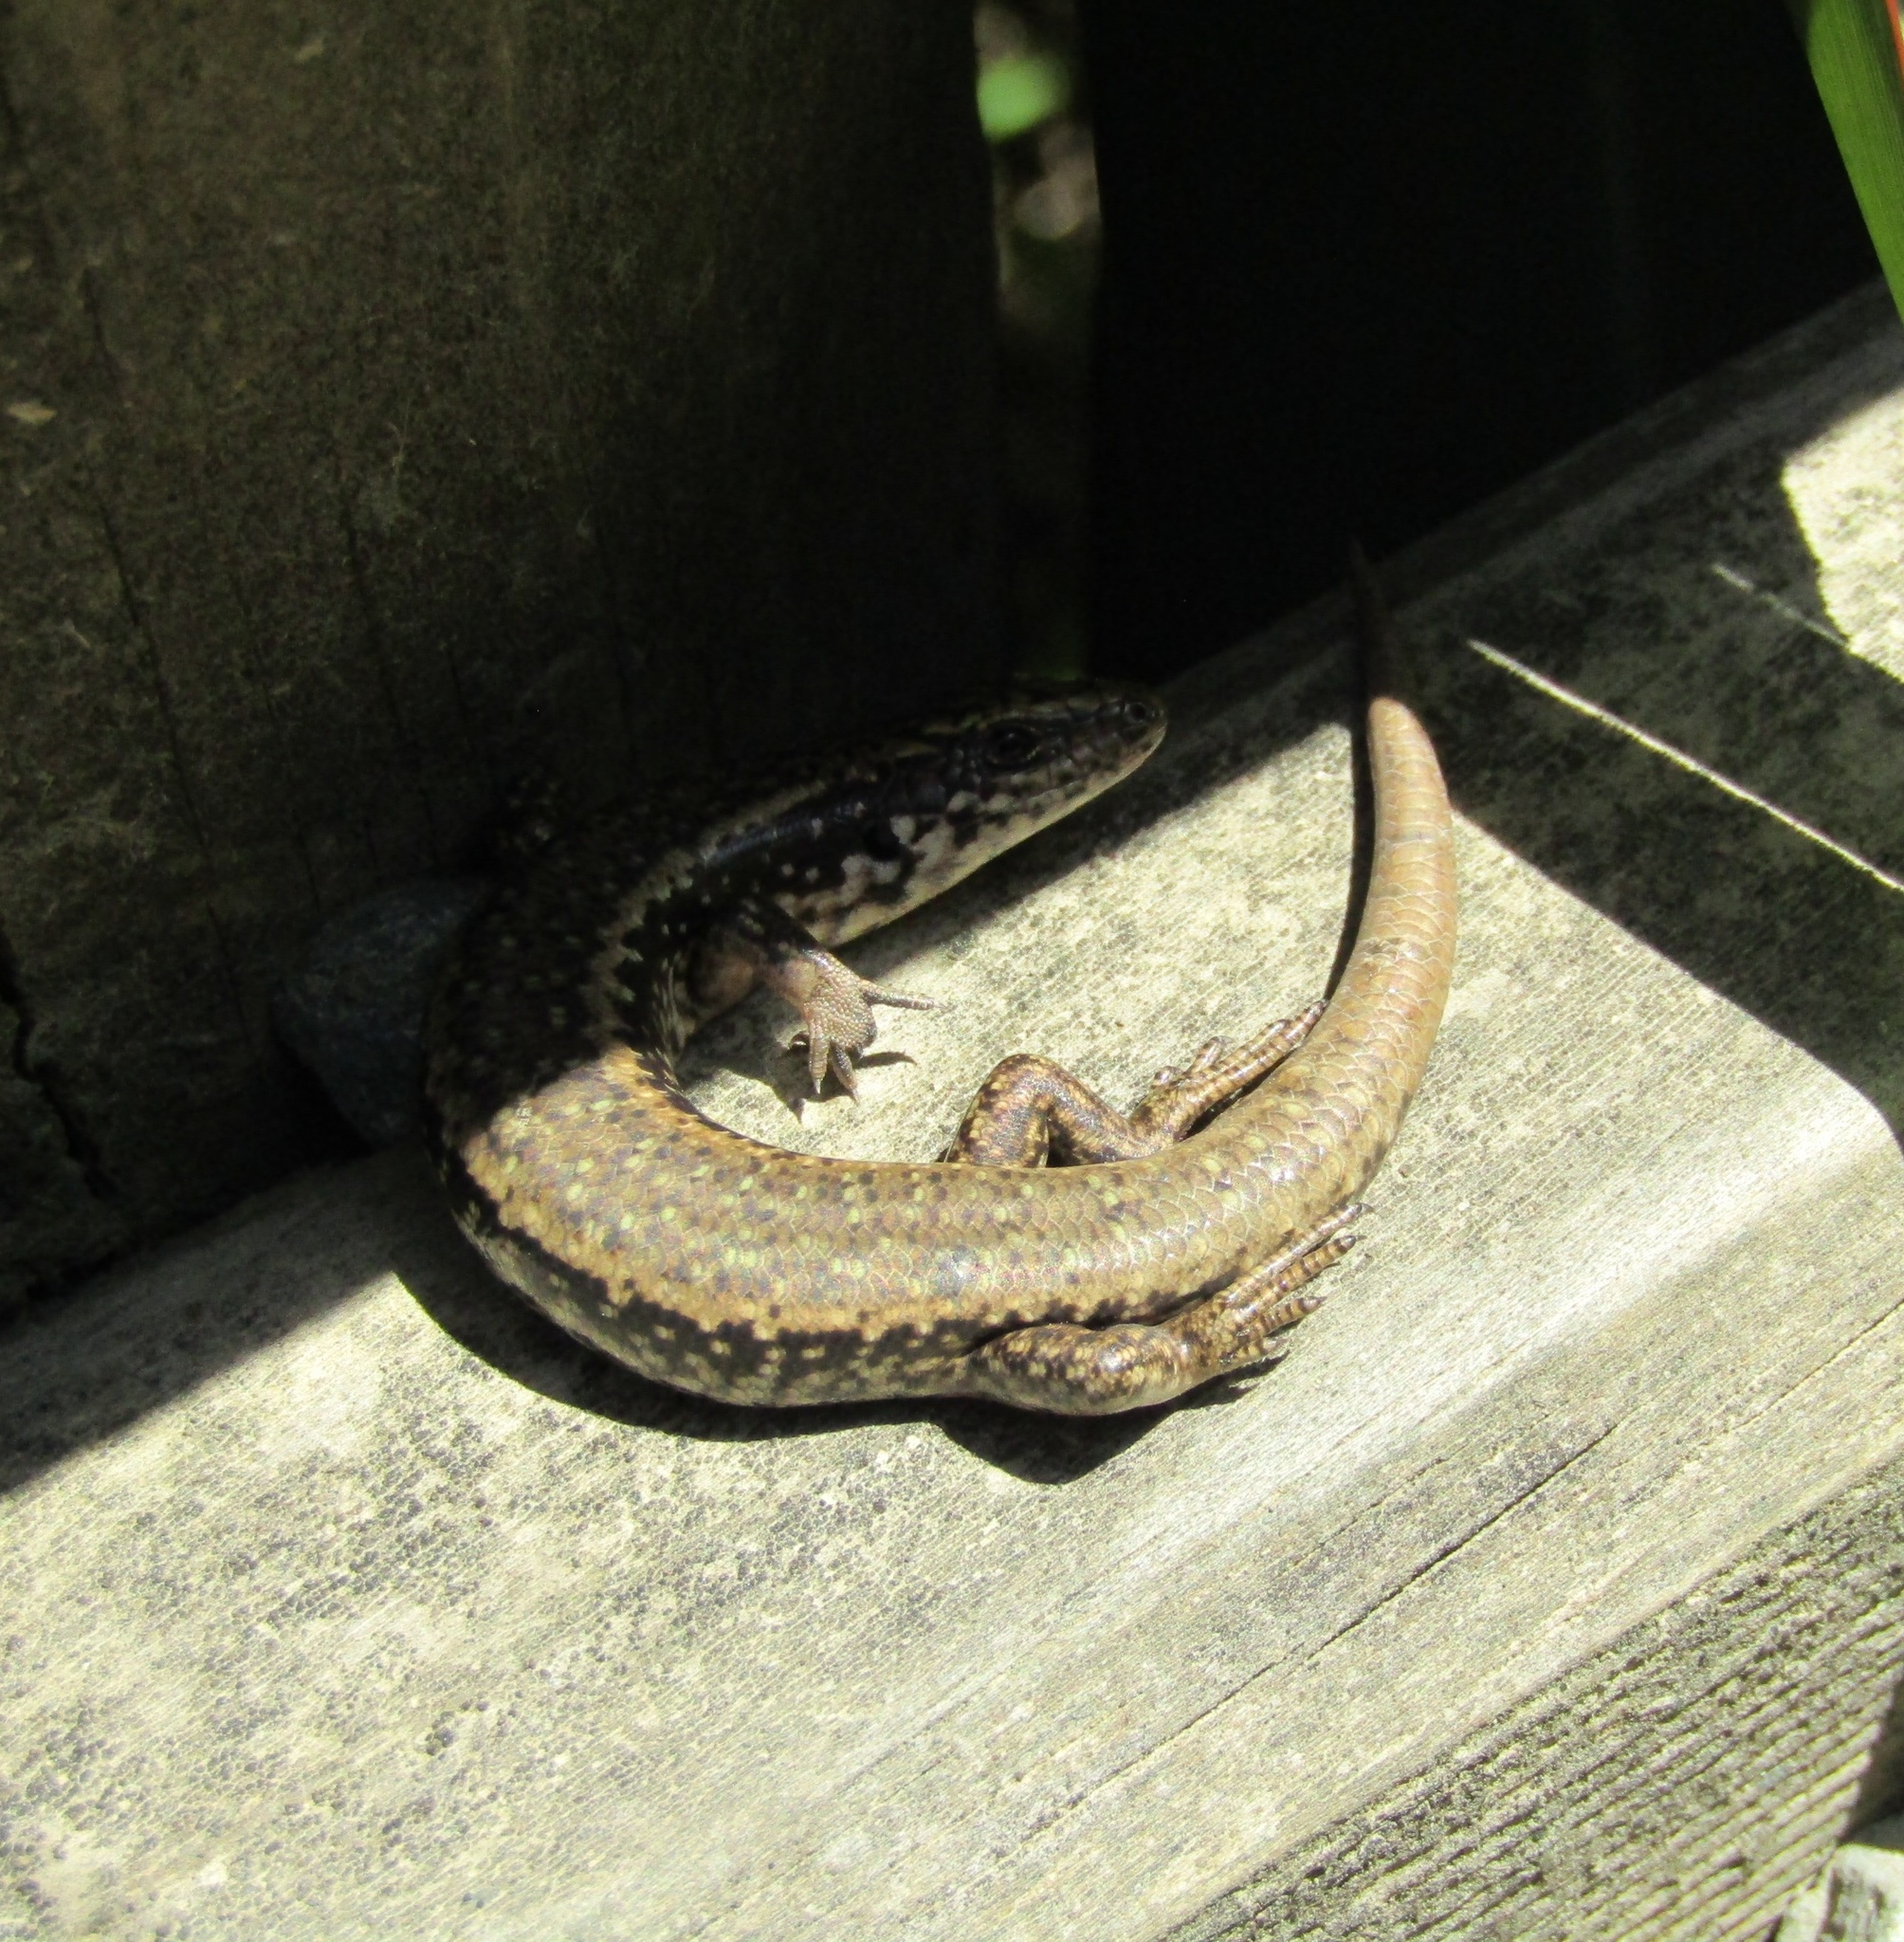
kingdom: Animalia
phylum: Chordata
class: Squamata
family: Scincidae
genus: Oligosoma
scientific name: Oligosoma kokowai
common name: Northern spotted skink
